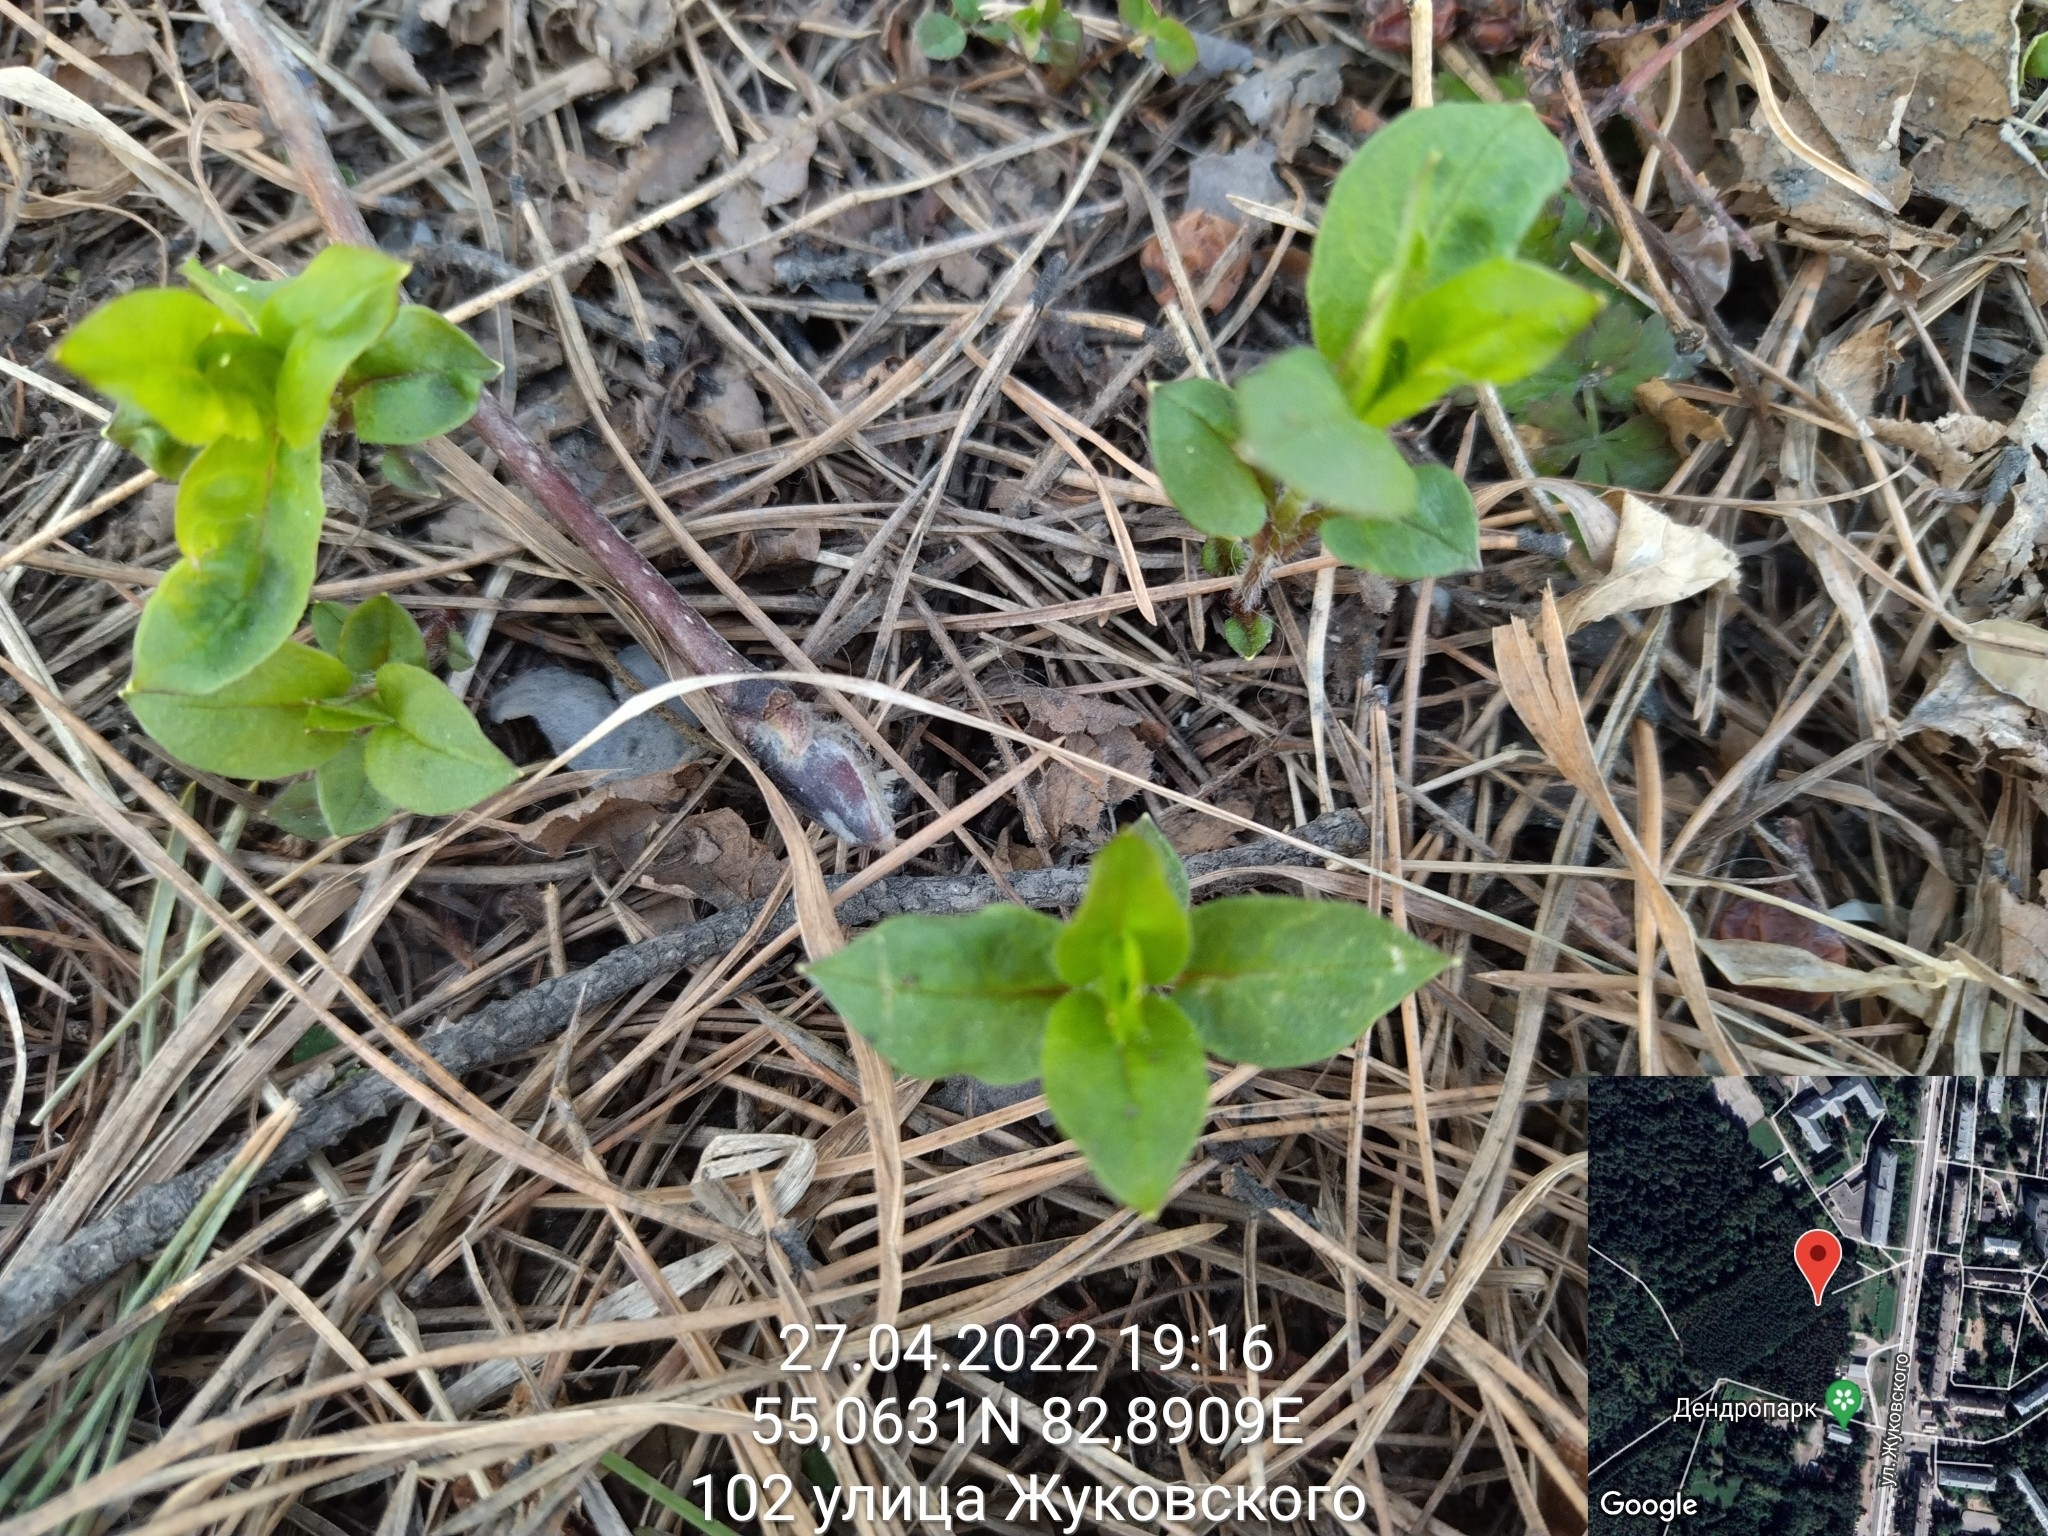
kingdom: Plantae
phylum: Tracheophyta
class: Magnoliopsida
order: Caryophyllales
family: Caryophyllaceae
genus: Stellaria
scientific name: Stellaria bungeana
